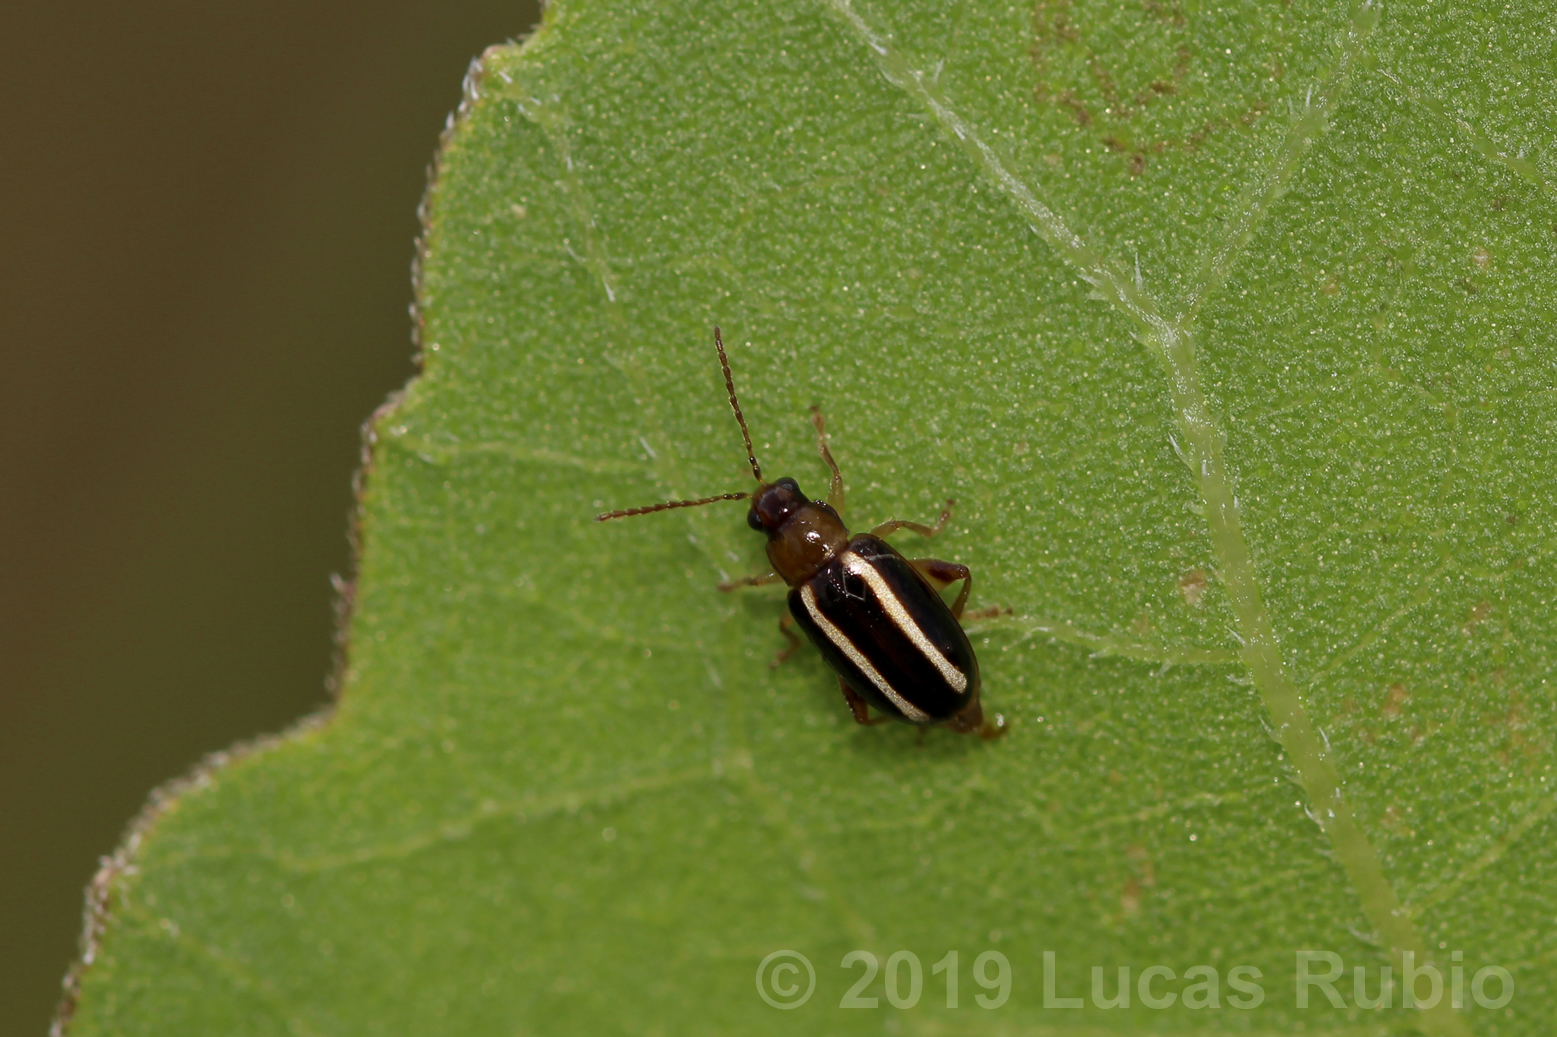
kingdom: Animalia
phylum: Arthropoda
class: Insecta
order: Coleoptera
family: Chrysomelidae
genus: Systena
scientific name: Systena
